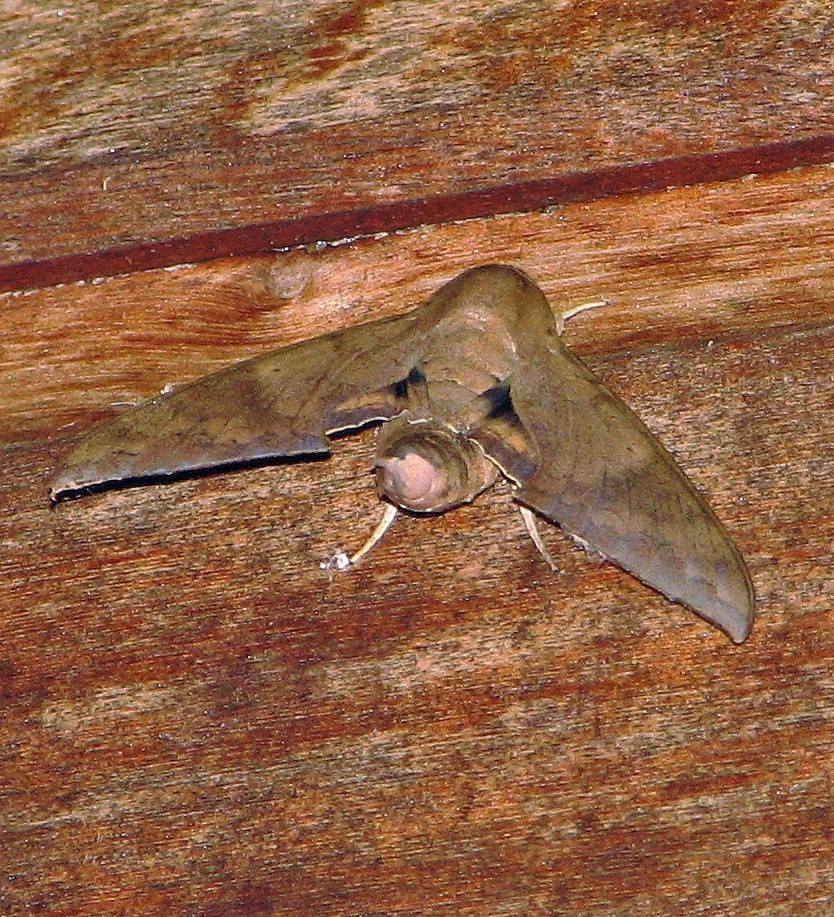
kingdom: Animalia
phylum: Arthropoda
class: Insecta
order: Lepidoptera
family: Sphingidae
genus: Pachylioides
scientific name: Pachylioides resumens
